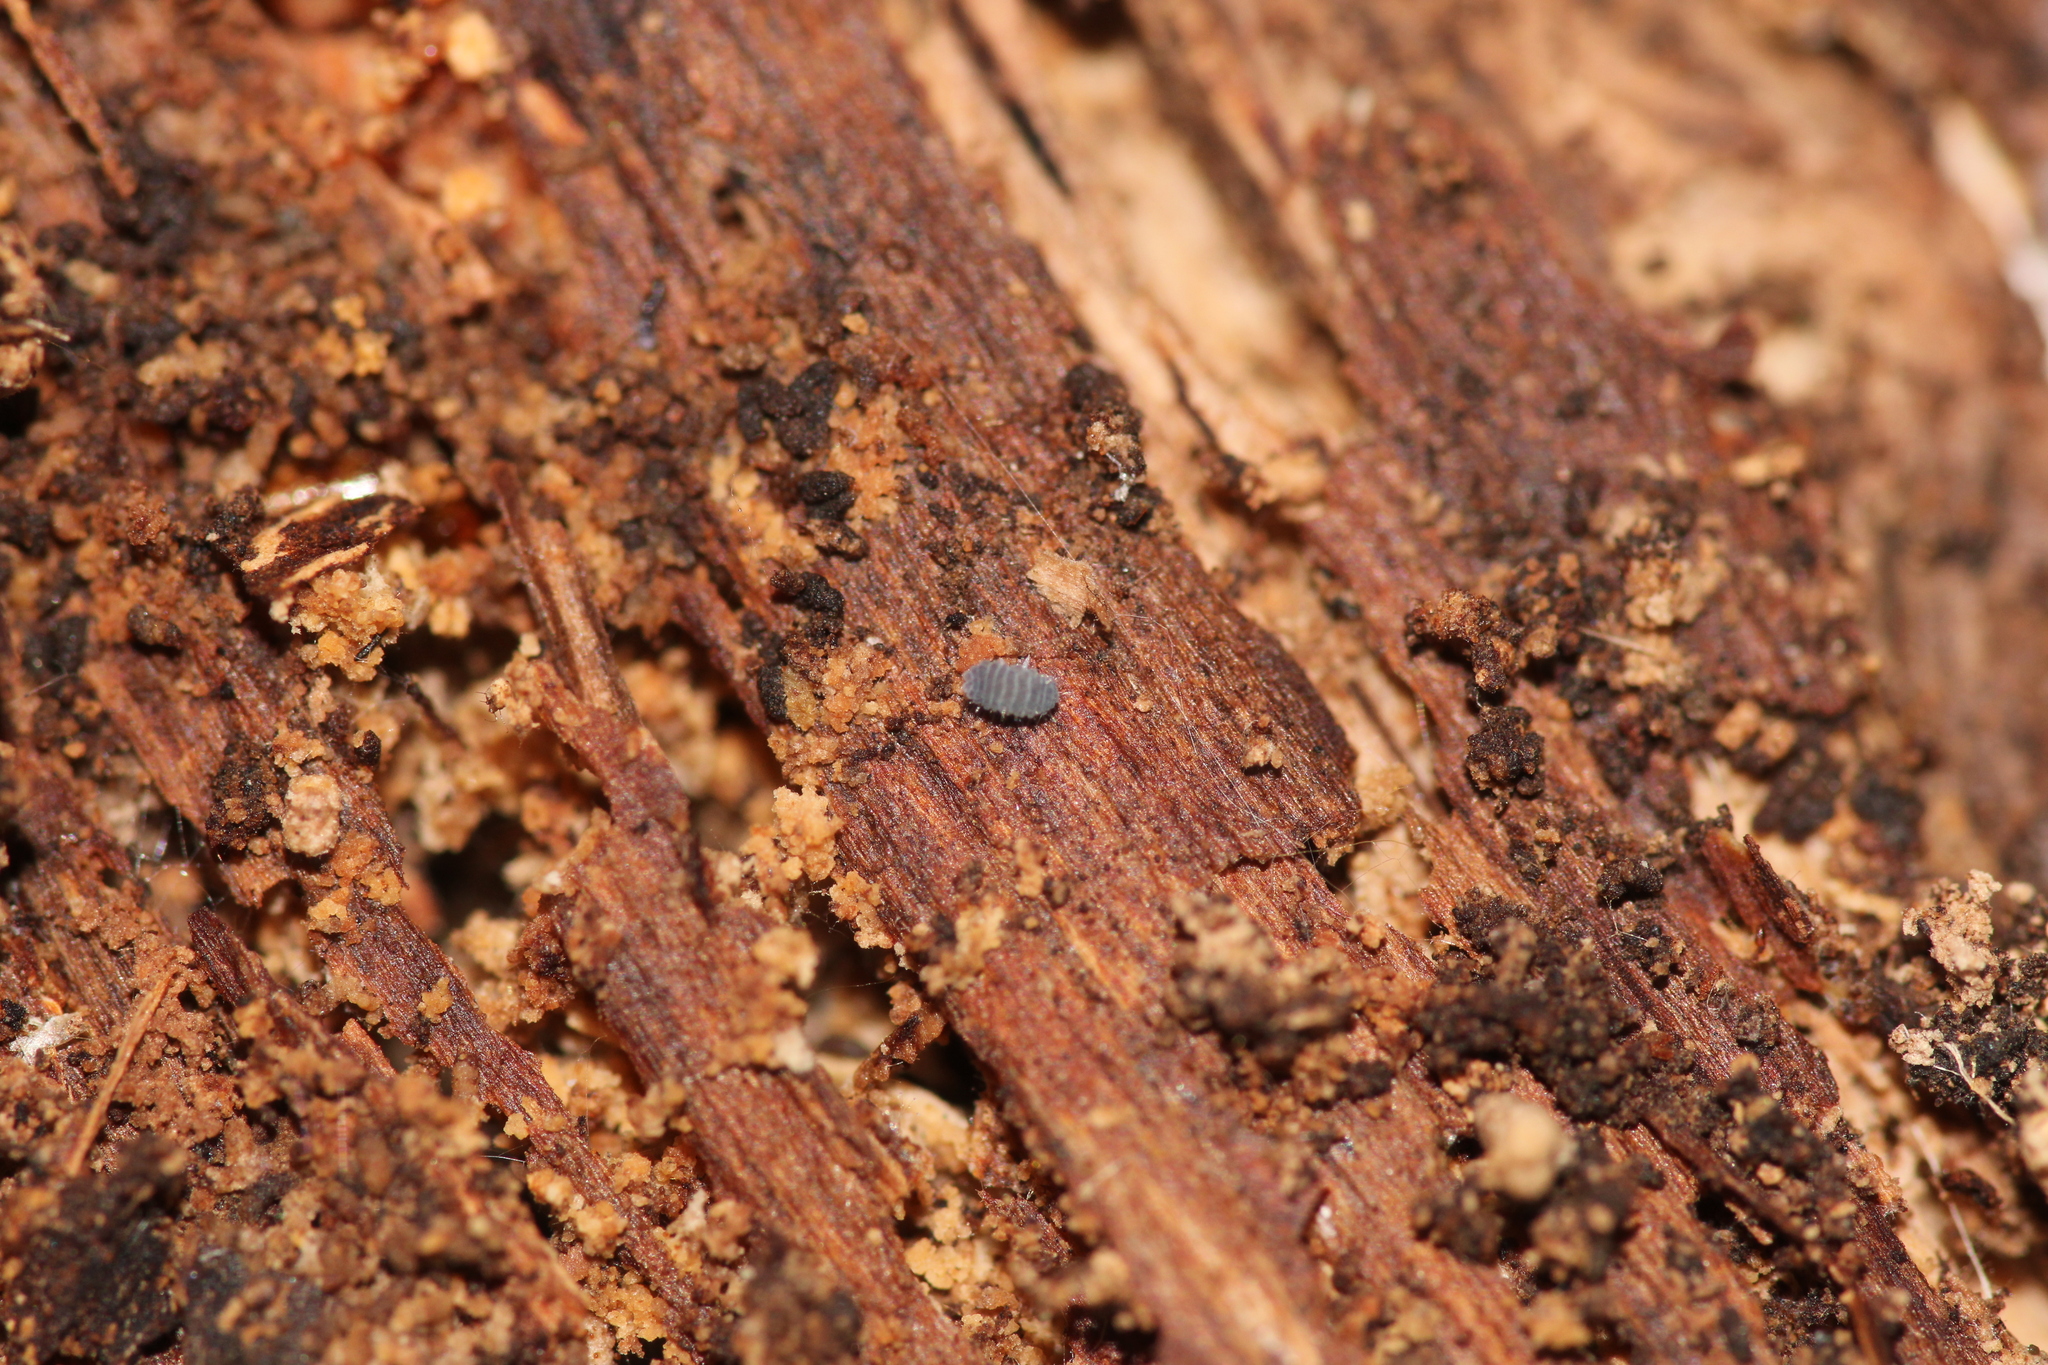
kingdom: Animalia
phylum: Arthropoda
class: Collembola
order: Poduromorpha
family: Neanuridae
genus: Neanura
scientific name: Neanura muscorum
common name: Springtail
